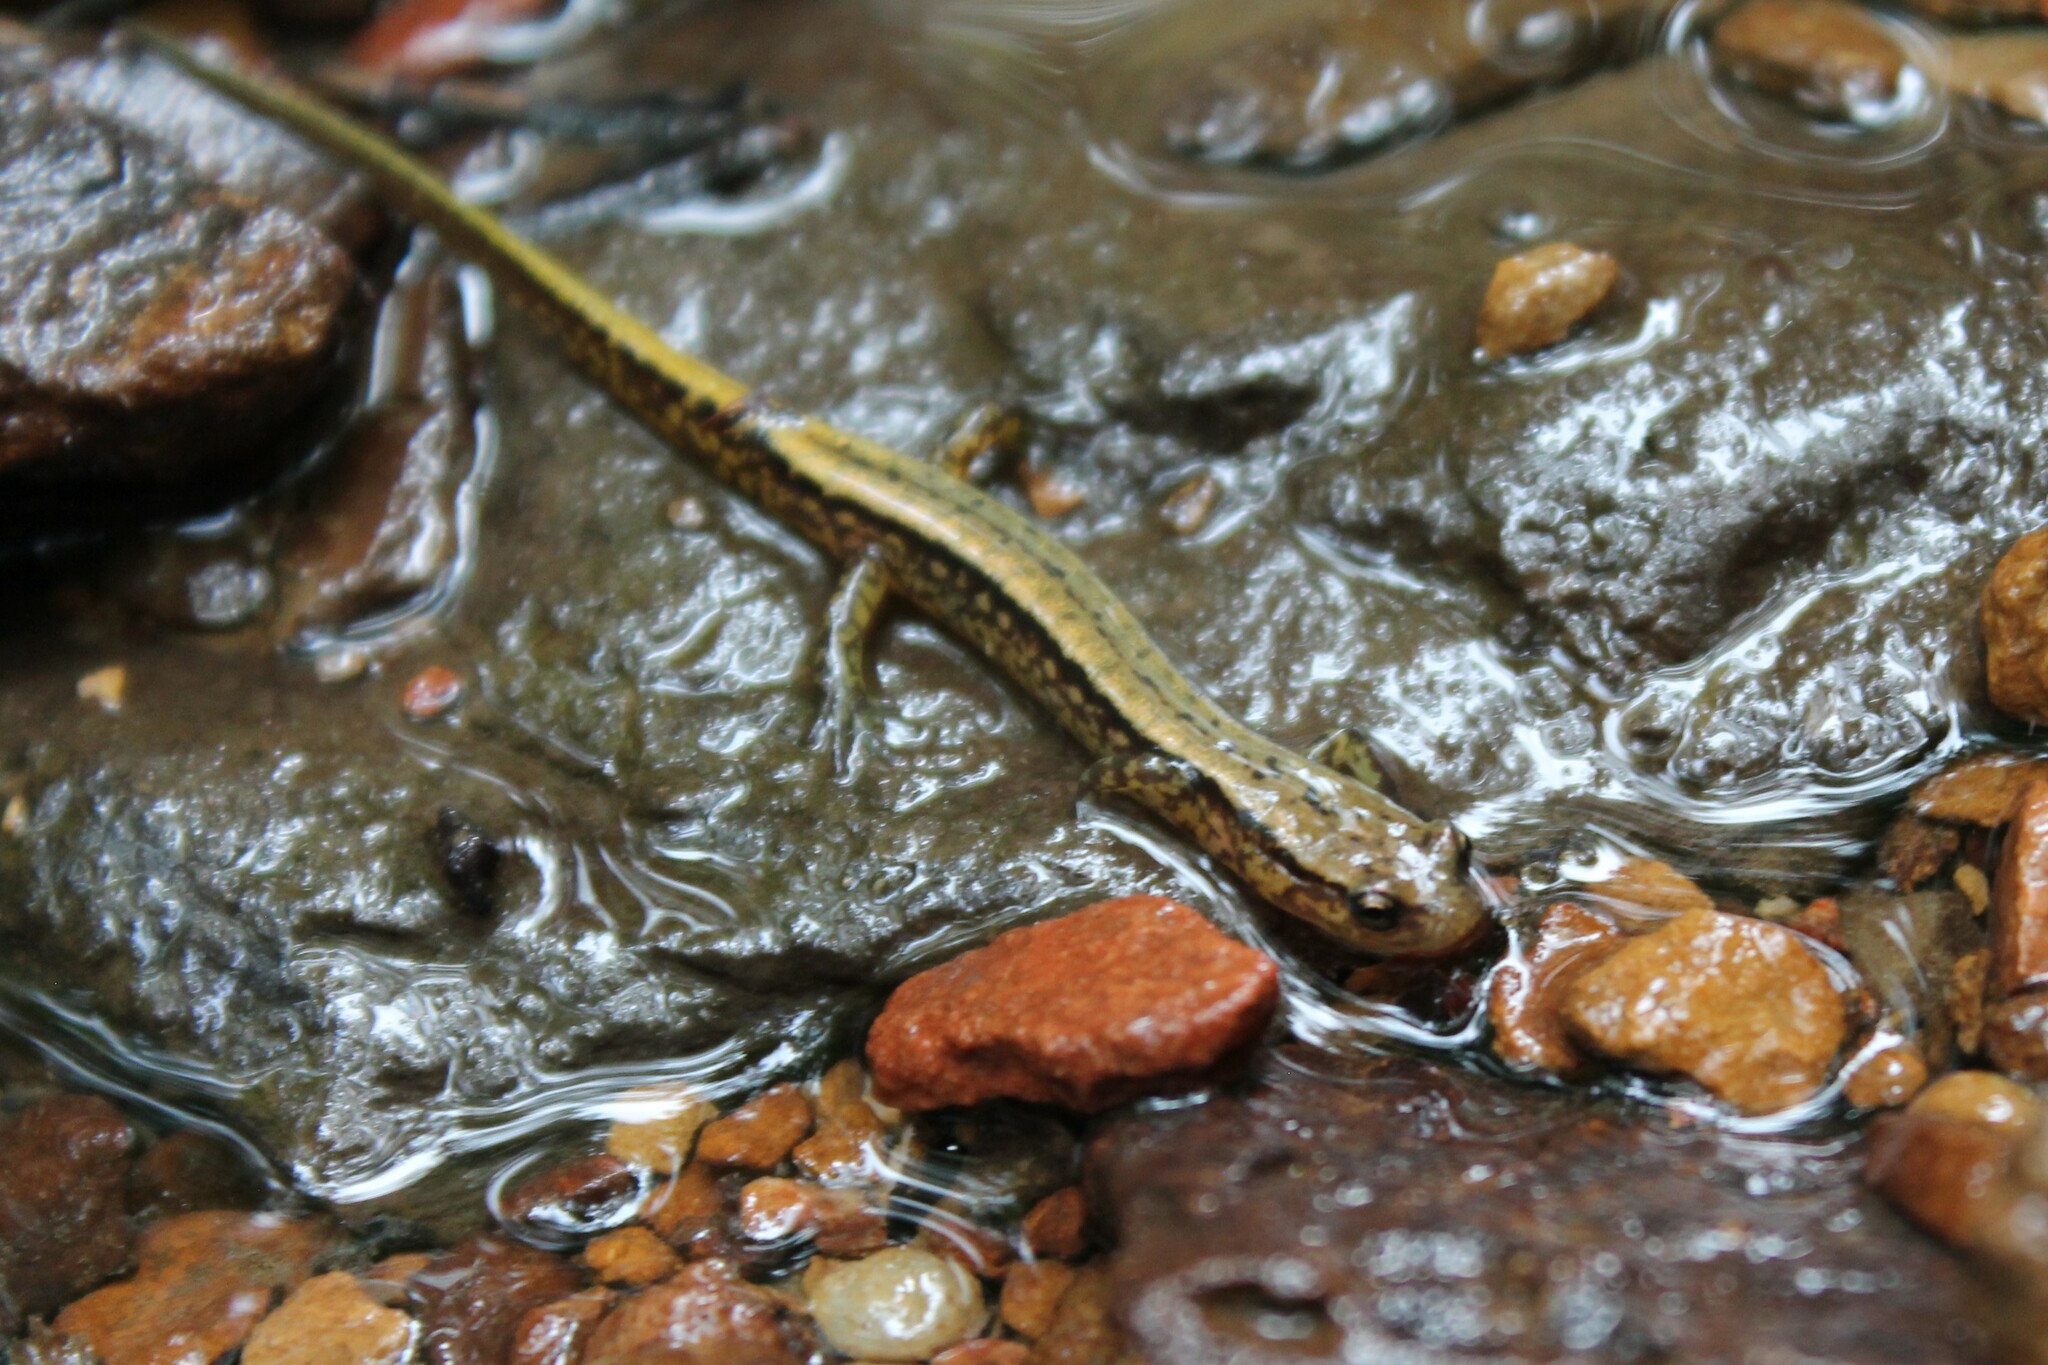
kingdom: Animalia
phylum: Chordata
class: Amphibia
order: Caudata
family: Plethodontidae
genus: Eurycea
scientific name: Eurycea cirrigera
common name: Southern two-lined salamander
